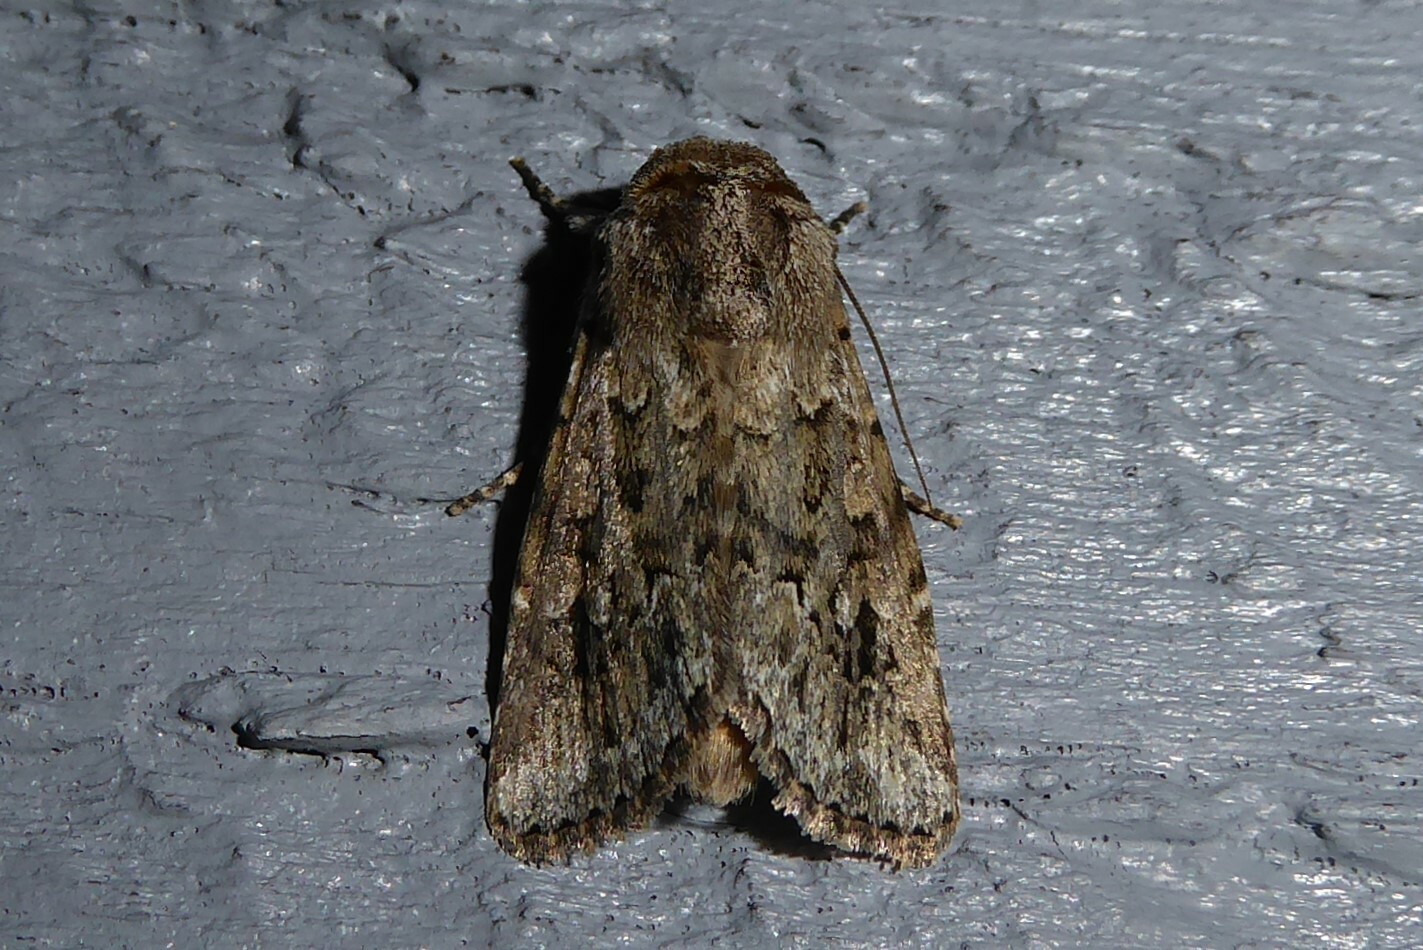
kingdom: Animalia
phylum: Arthropoda
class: Insecta
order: Lepidoptera
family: Noctuidae
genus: Ectopatria
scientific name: Ectopatria aspera
